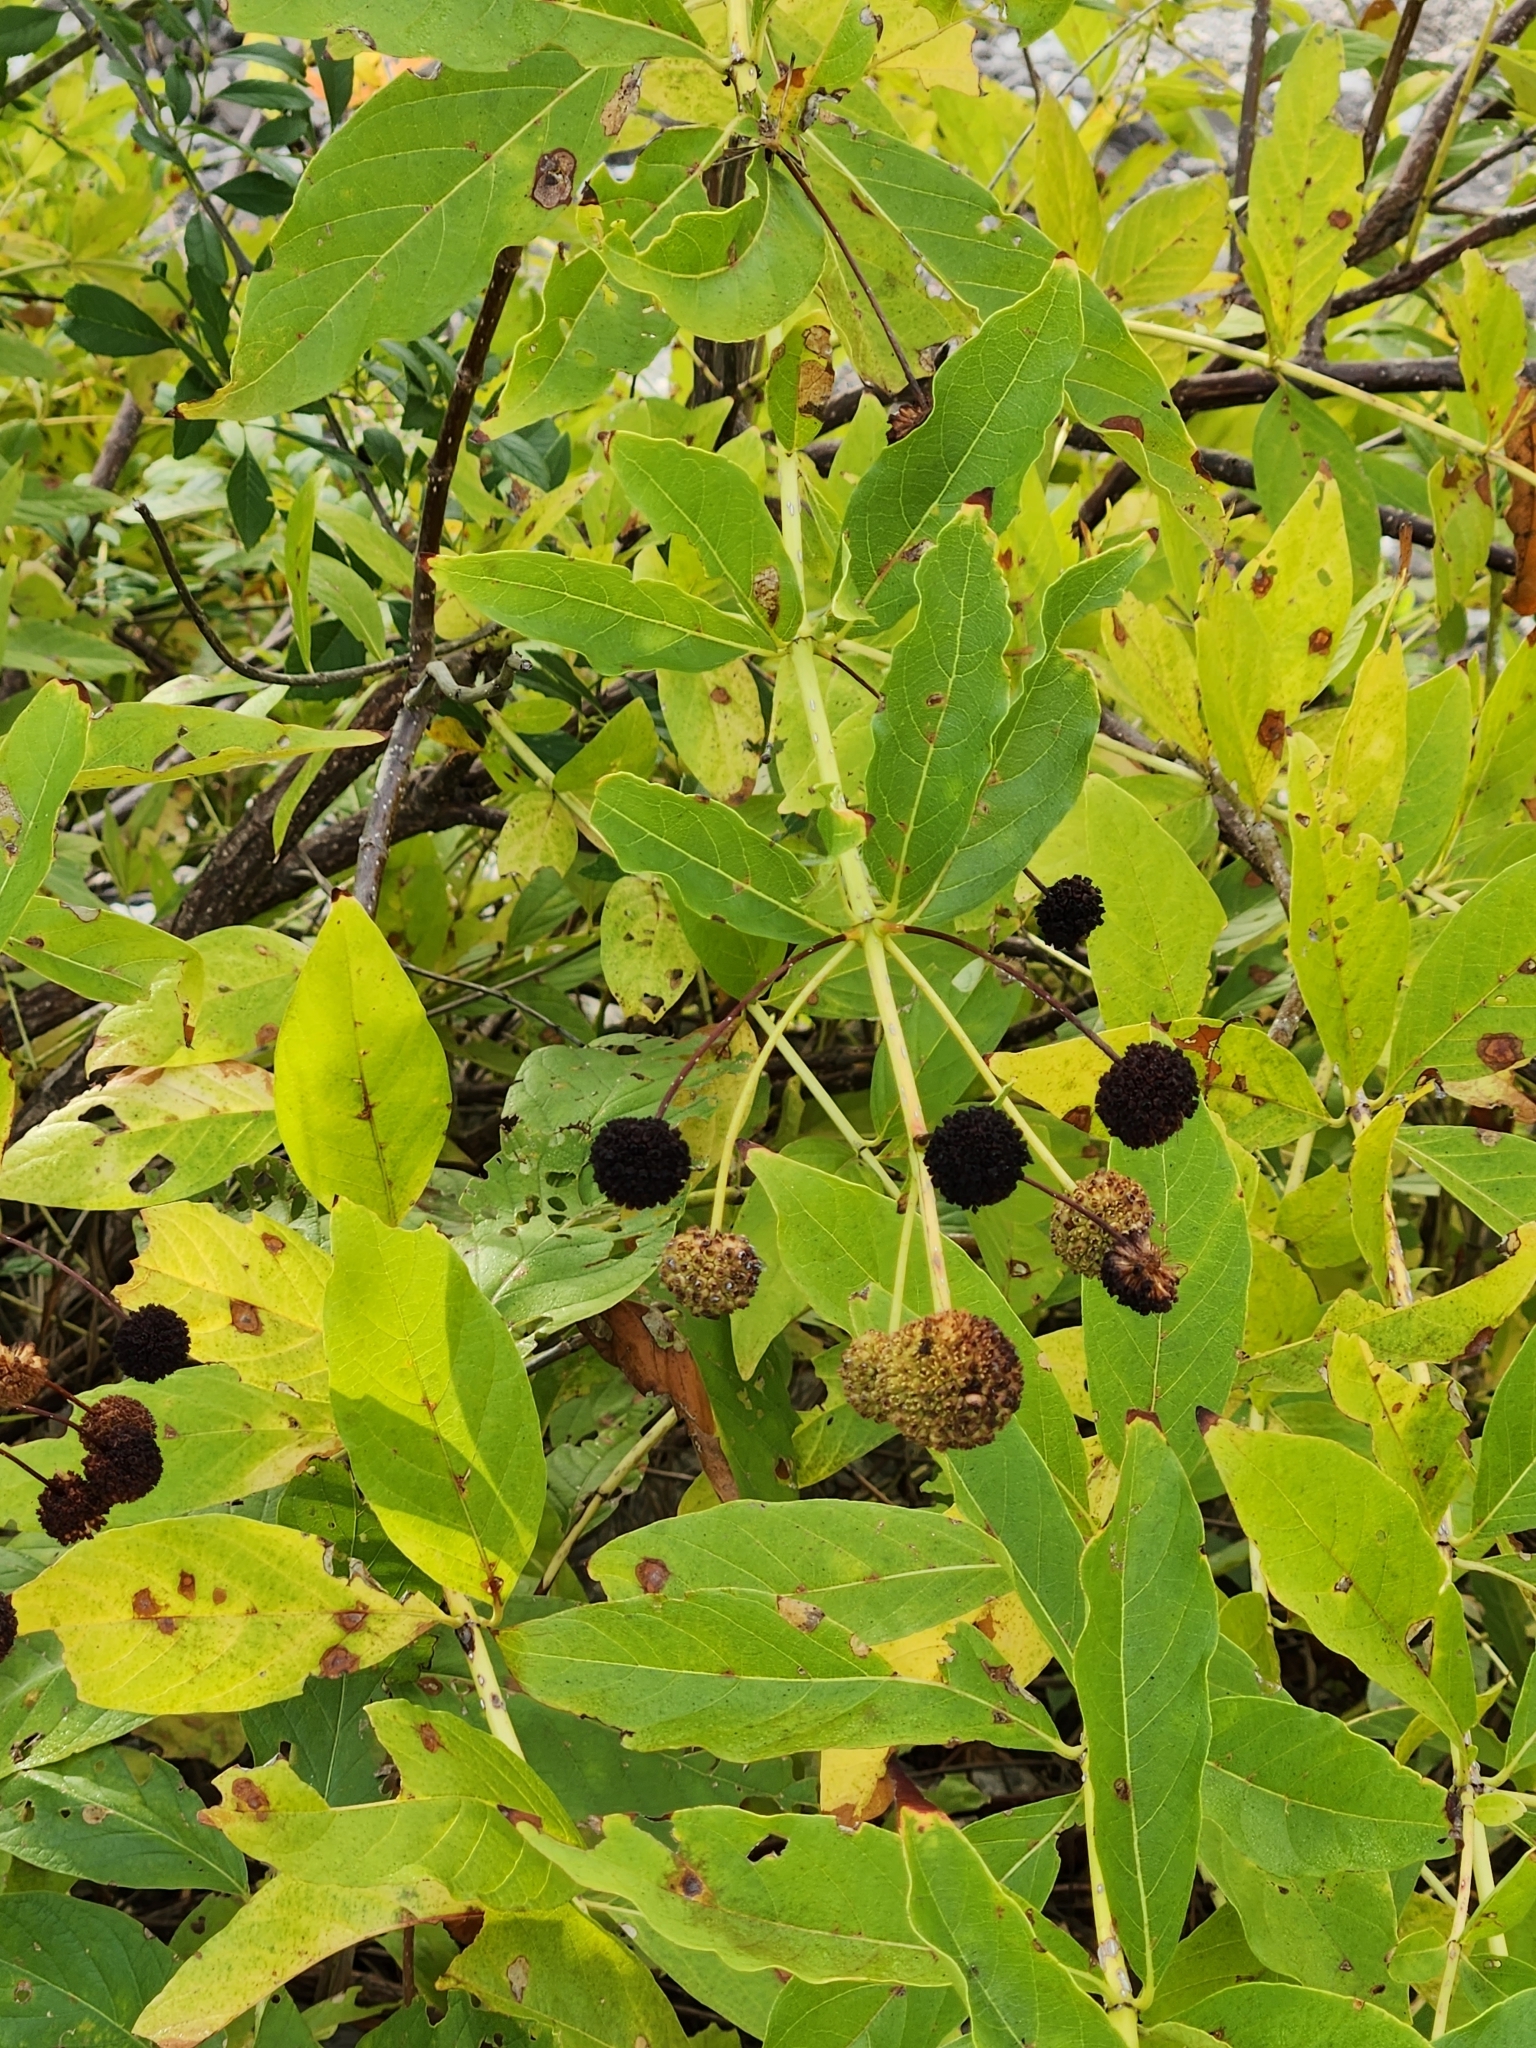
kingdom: Plantae
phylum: Tracheophyta
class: Magnoliopsida
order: Gentianales
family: Rubiaceae
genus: Cephalanthus
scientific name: Cephalanthus occidentalis
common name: Button-willow
